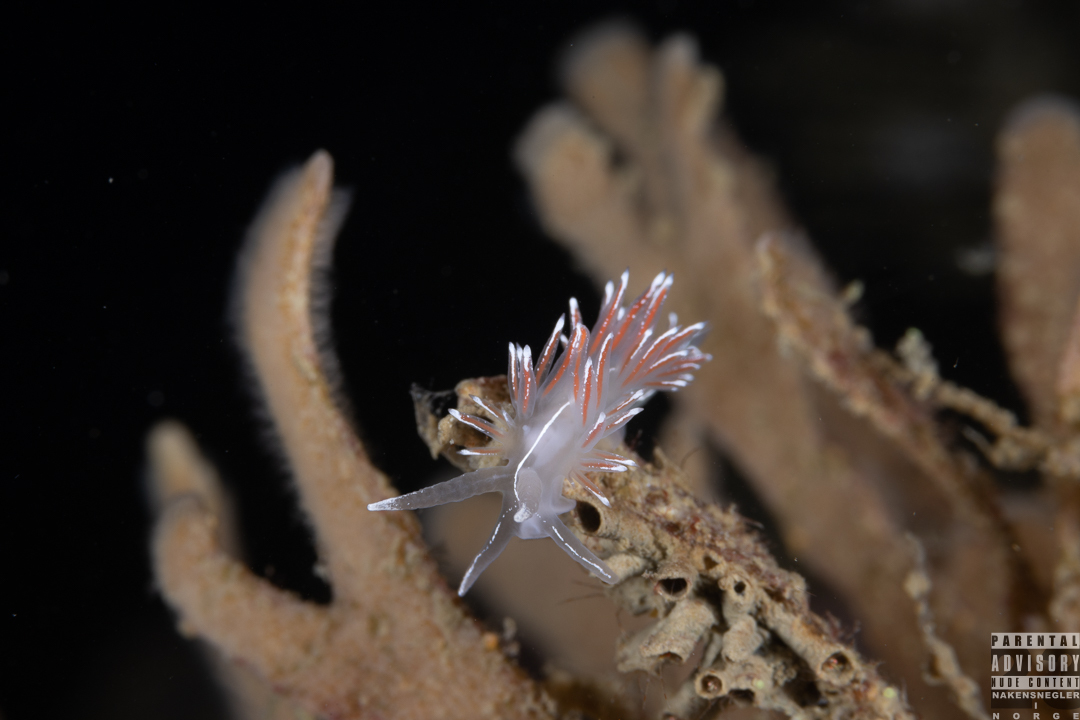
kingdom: Animalia
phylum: Mollusca
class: Gastropoda
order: Nudibranchia
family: Coryphellidae
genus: Coryphella
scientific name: Coryphella lineata
